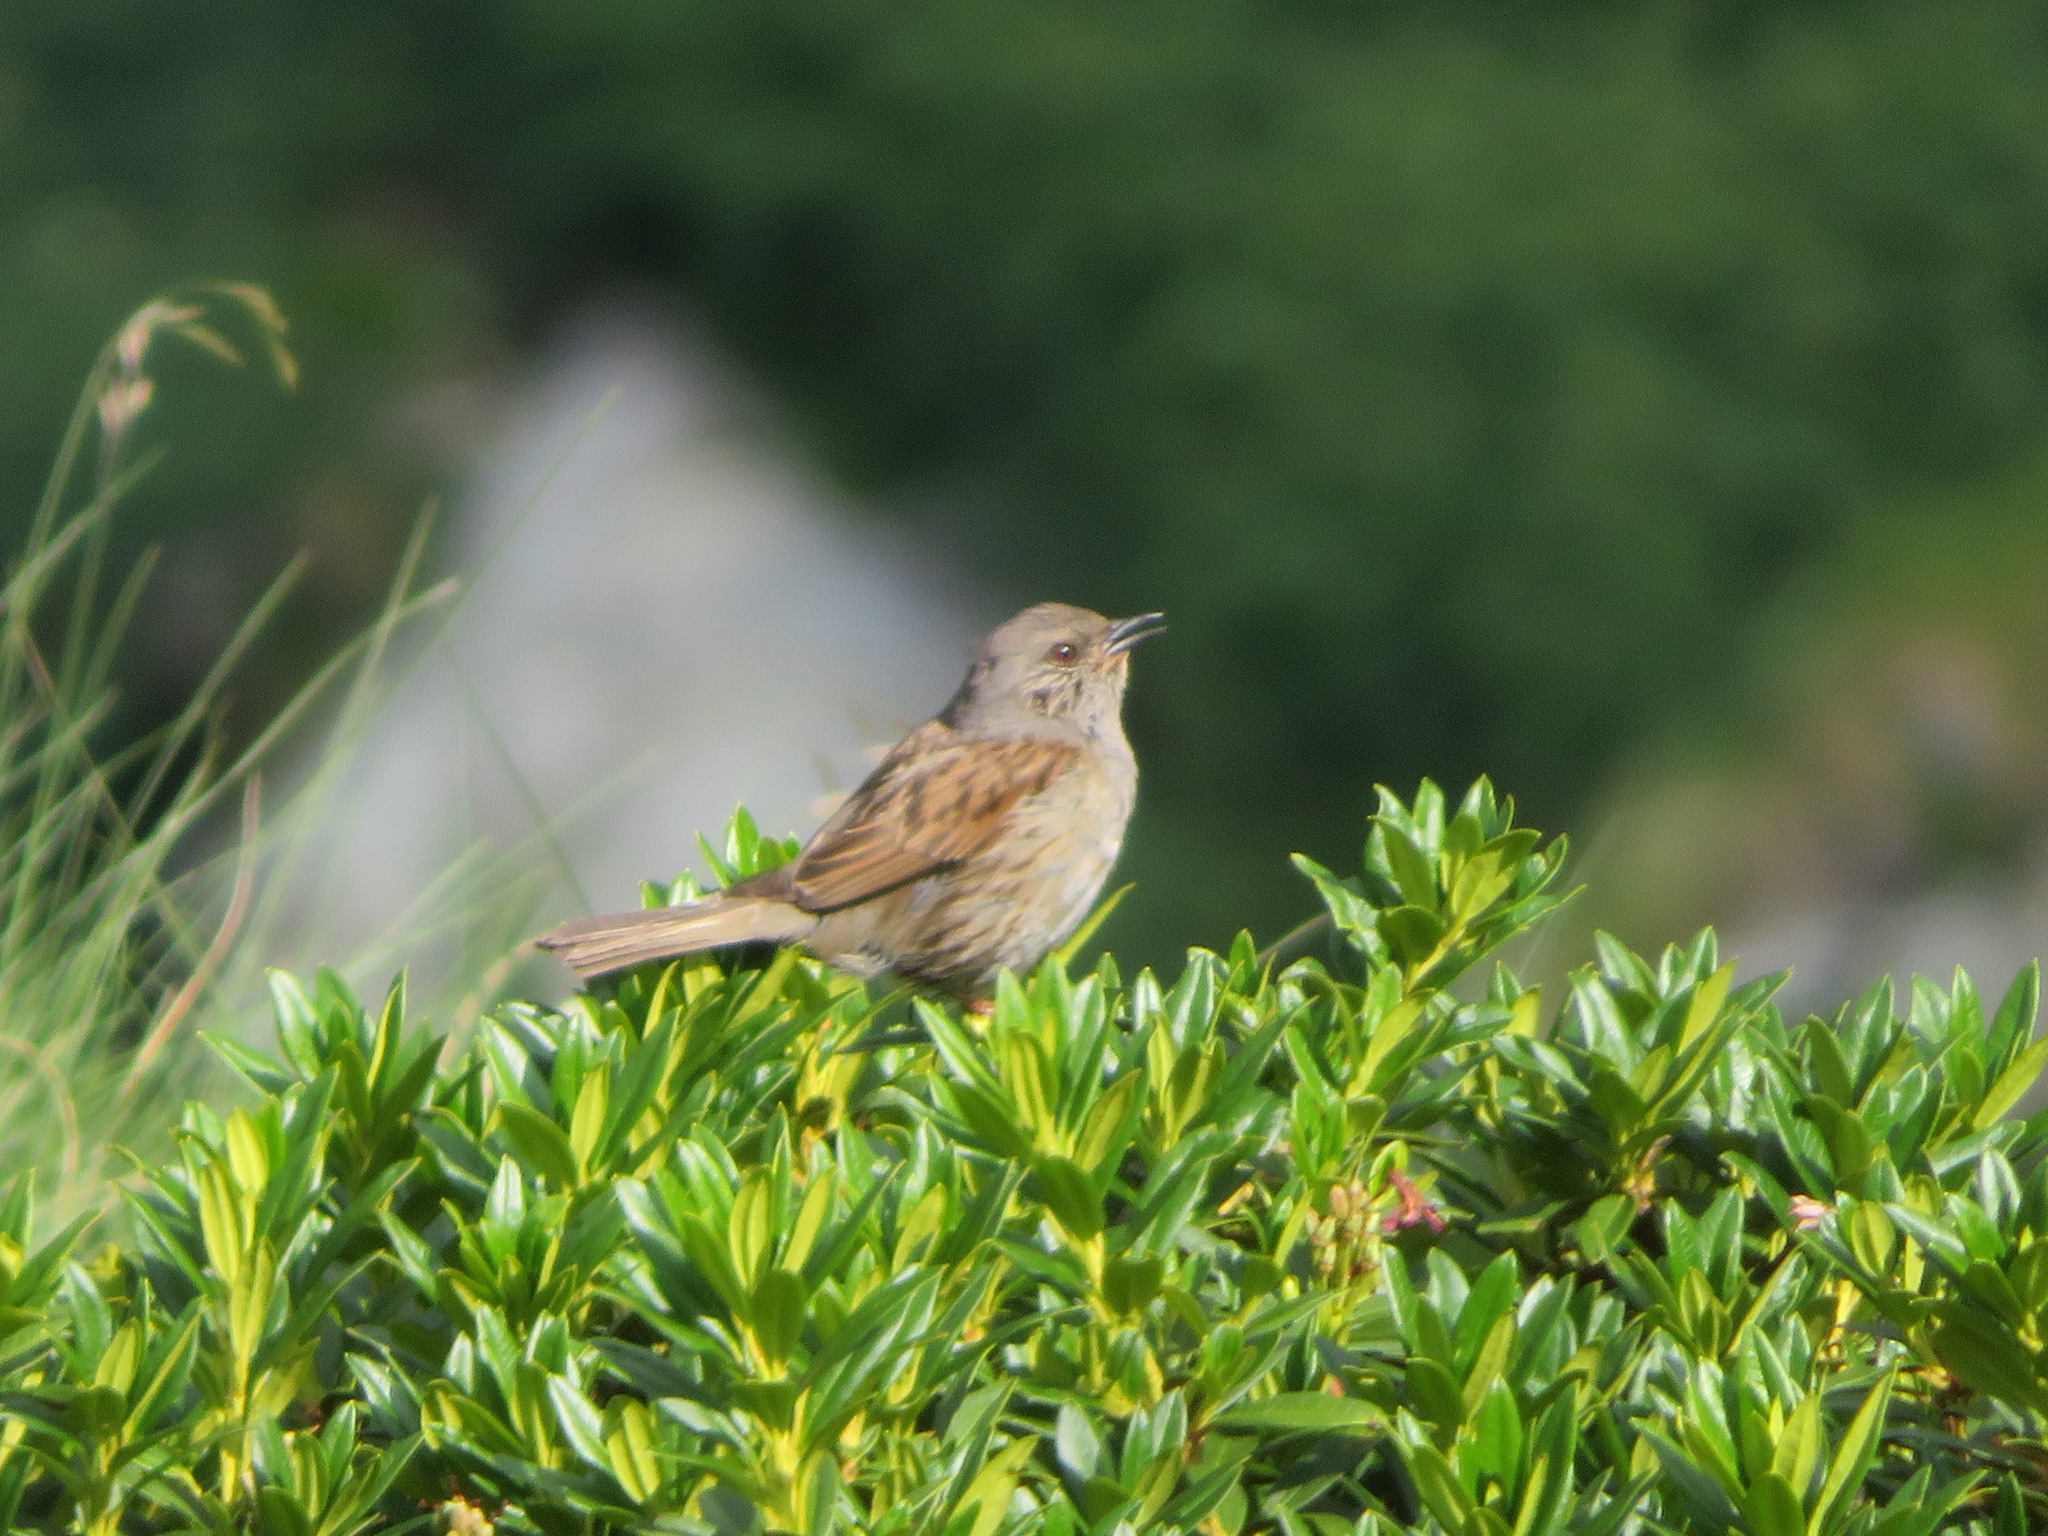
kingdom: Animalia
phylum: Chordata
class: Aves
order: Passeriformes
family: Prunellidae
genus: Prunella
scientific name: Prunella modularis
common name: Dunnock
